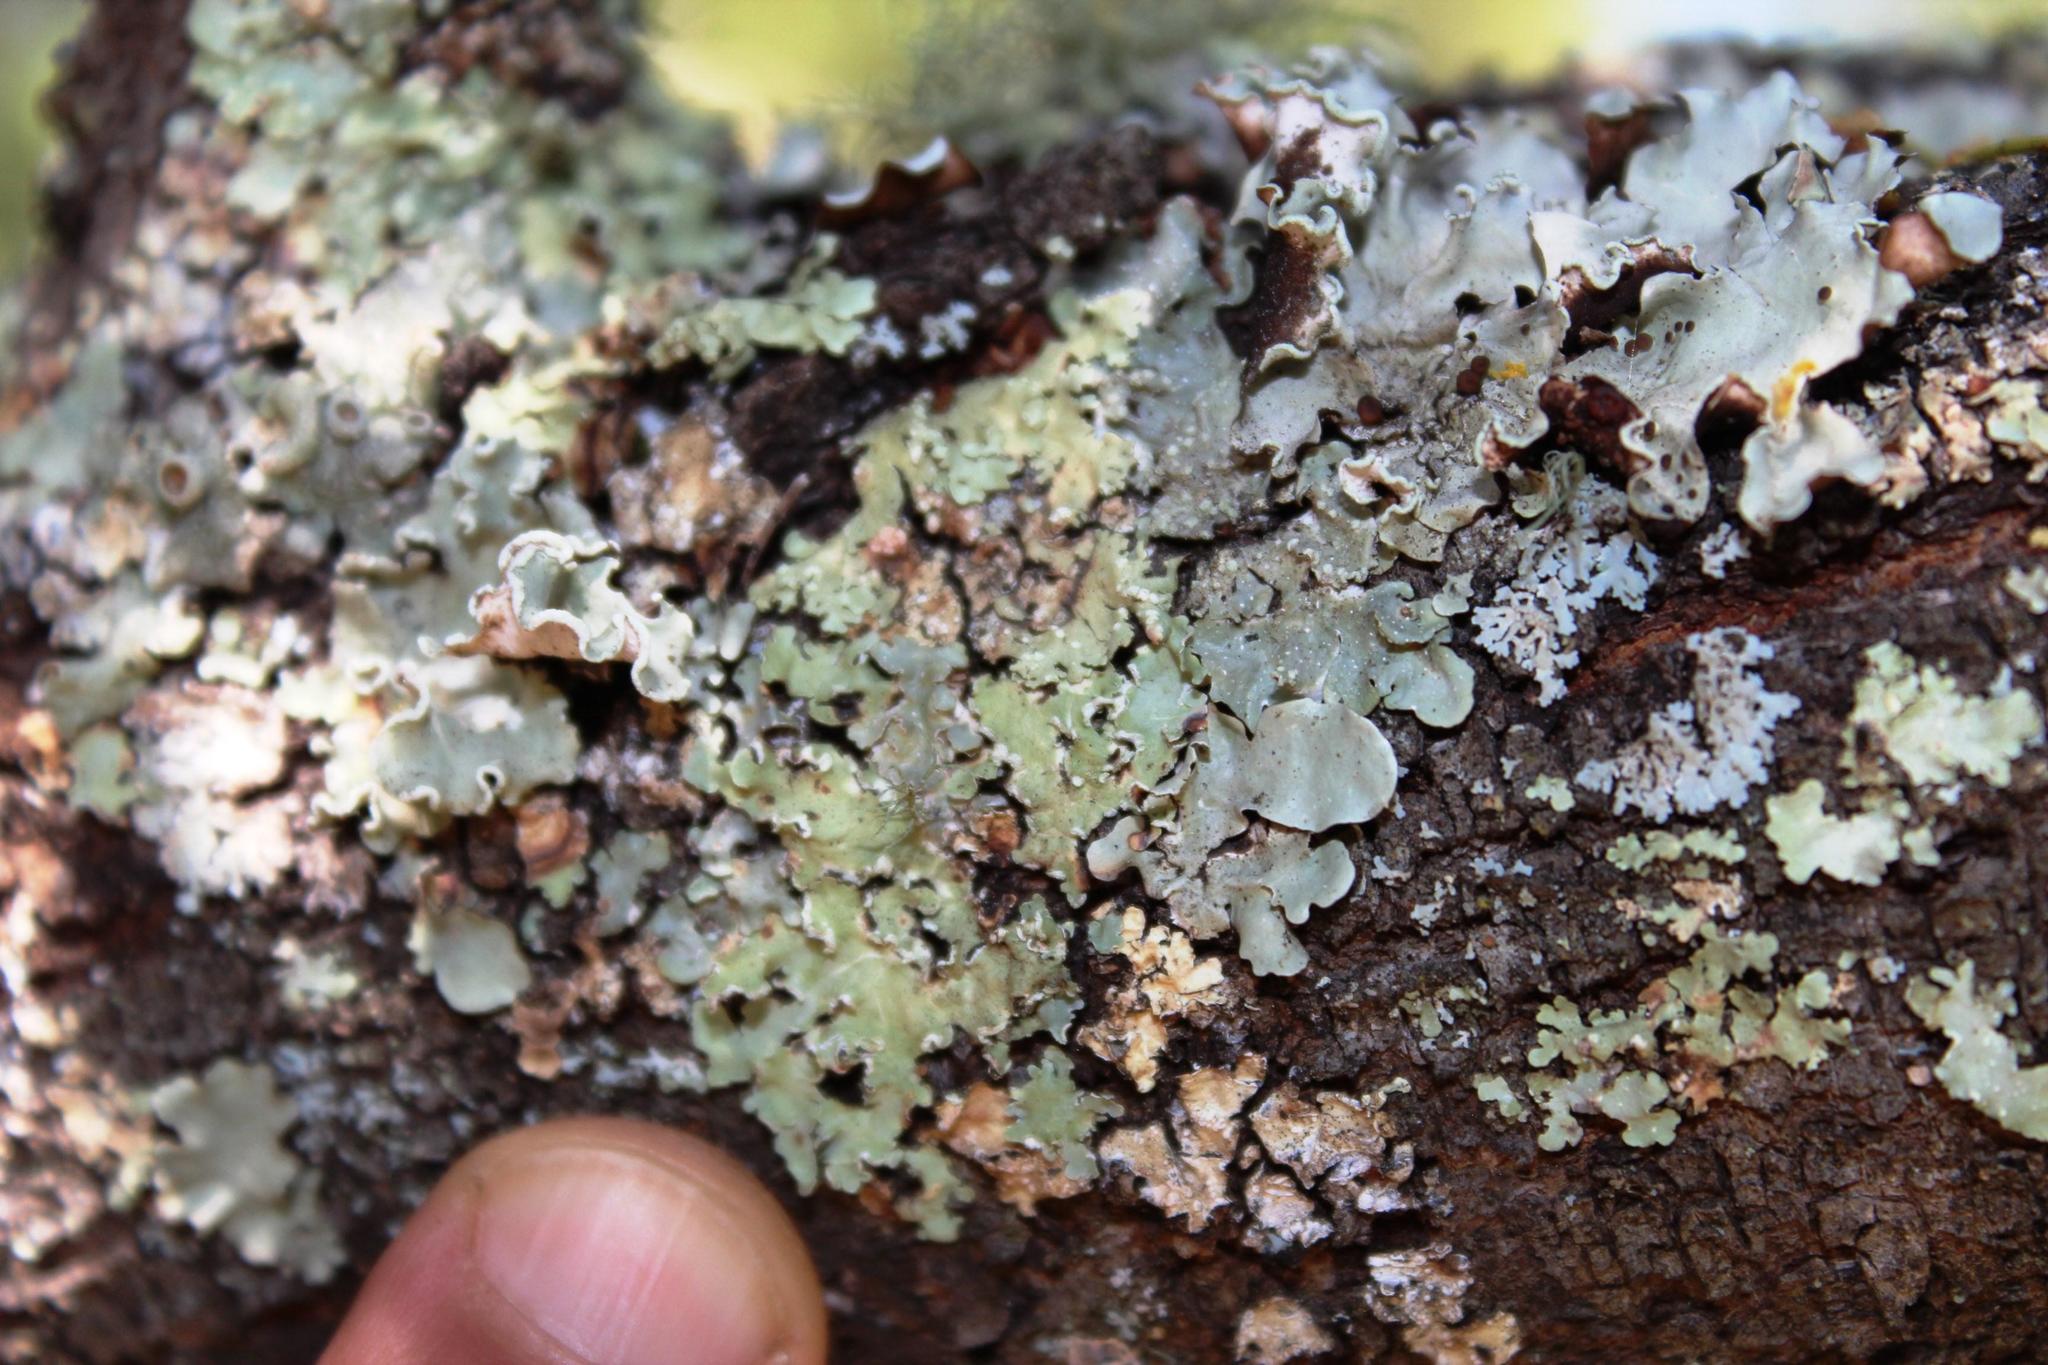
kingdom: Fungi
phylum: Ascomycota
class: Lecanoromycetes
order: Lecanorales
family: Parmeliaceae
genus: Flavopunctelia
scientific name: Flavopunctelia soredica
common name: Powder-edged speckled greenshield
